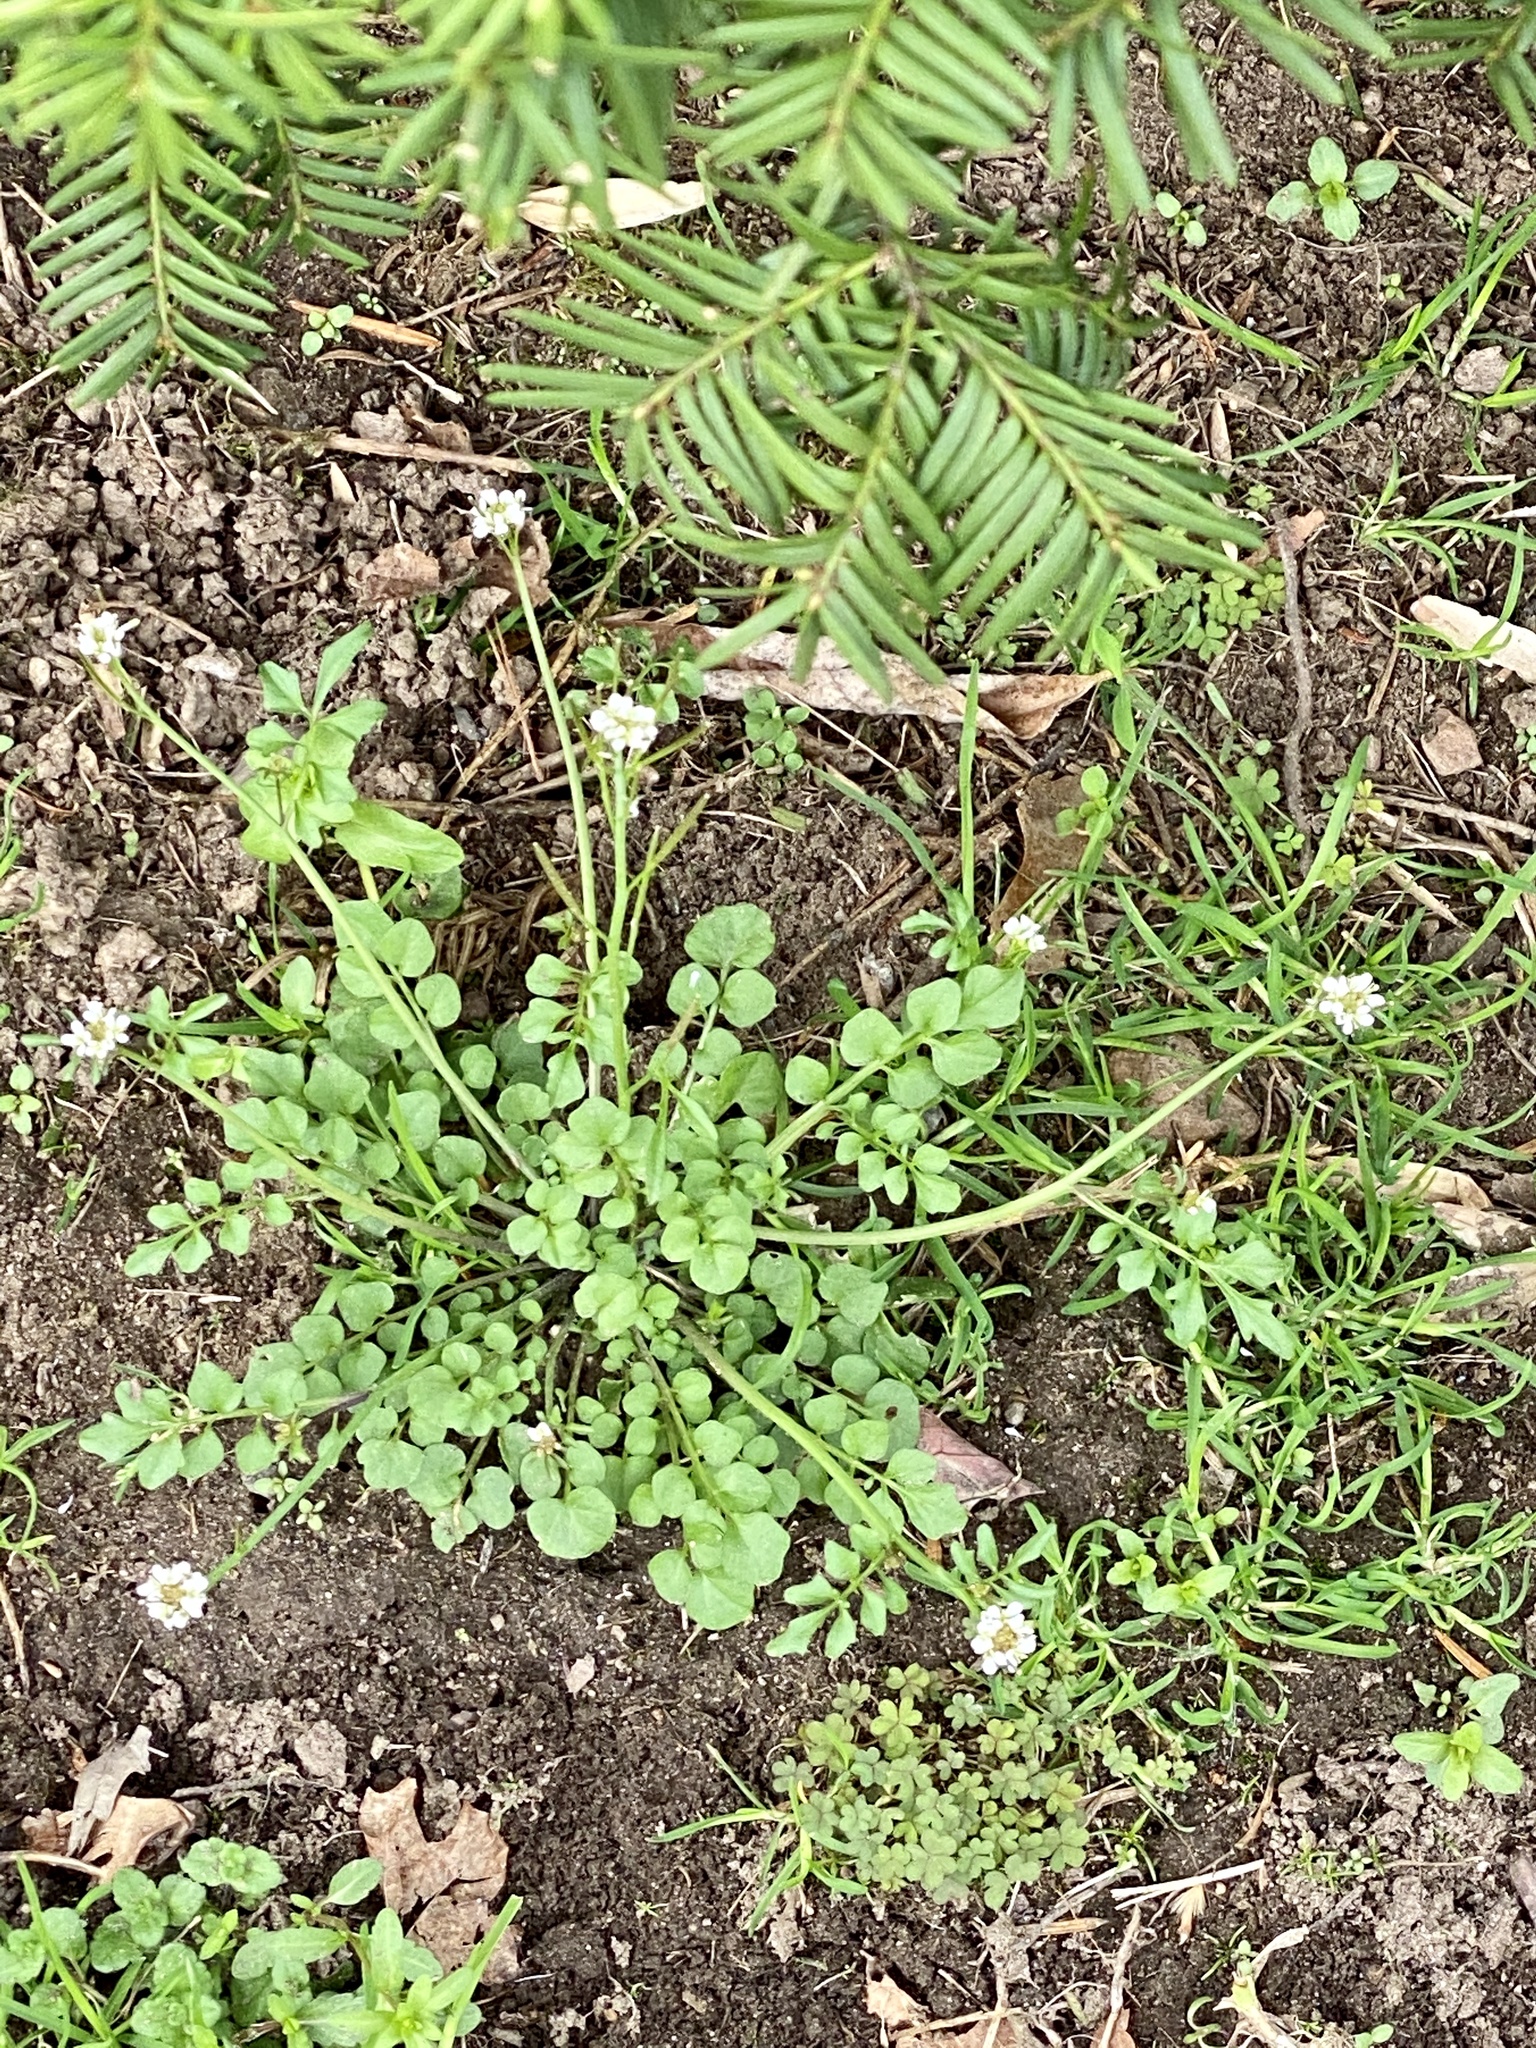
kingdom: Plantae
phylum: Tracheophyta
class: Magnoliopsida
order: Brassicales
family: Brassicaceae
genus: Cardamine
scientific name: Cardamine hirsuta
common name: Hairy bittercress
